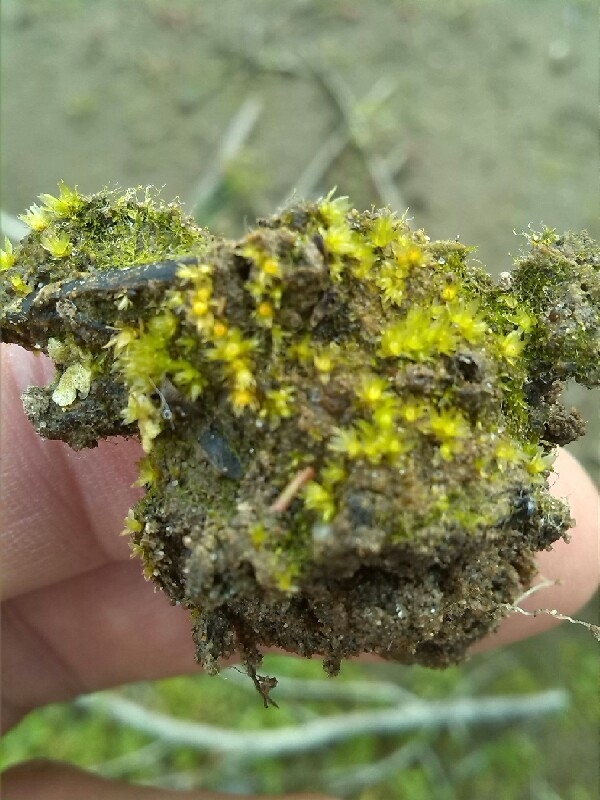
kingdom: Plantae
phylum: Bryophyta
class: Bryopsida
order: Funariales
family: Funariaceae
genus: Physcomitrium
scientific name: Physcomitrium patens
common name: Spreading earth-moss
